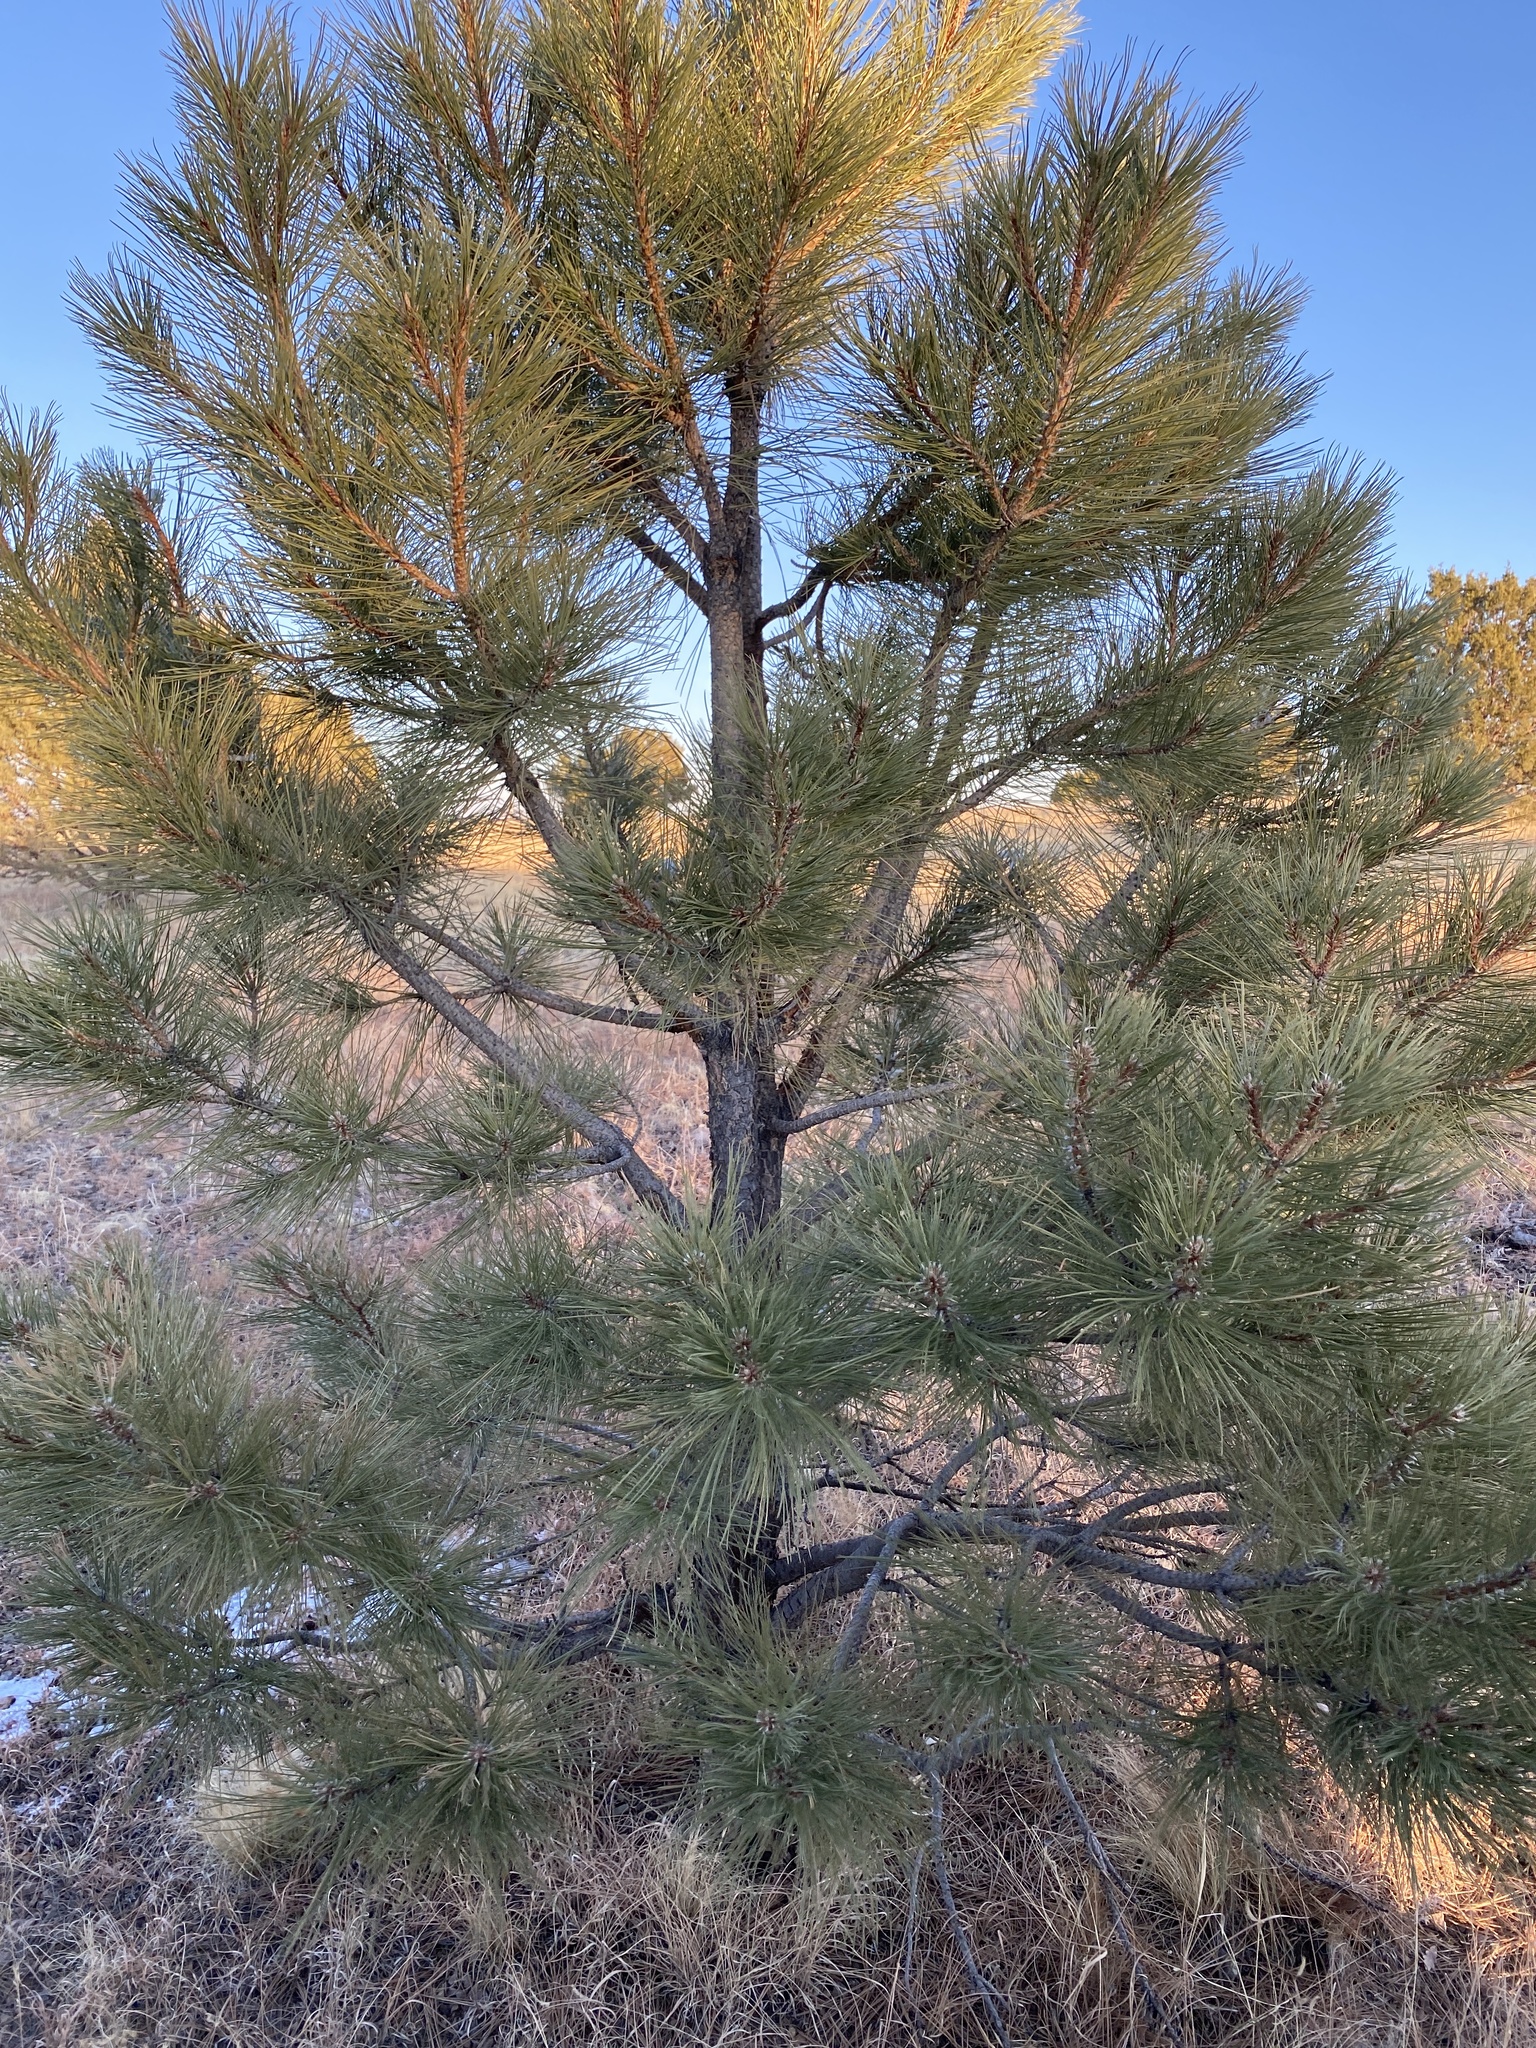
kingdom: Plantae
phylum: Tracheophyta
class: Pinopsida
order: Pinales
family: Pinaceae
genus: Pinus
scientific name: Pinus ponderosa
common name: Western yellow-pine
